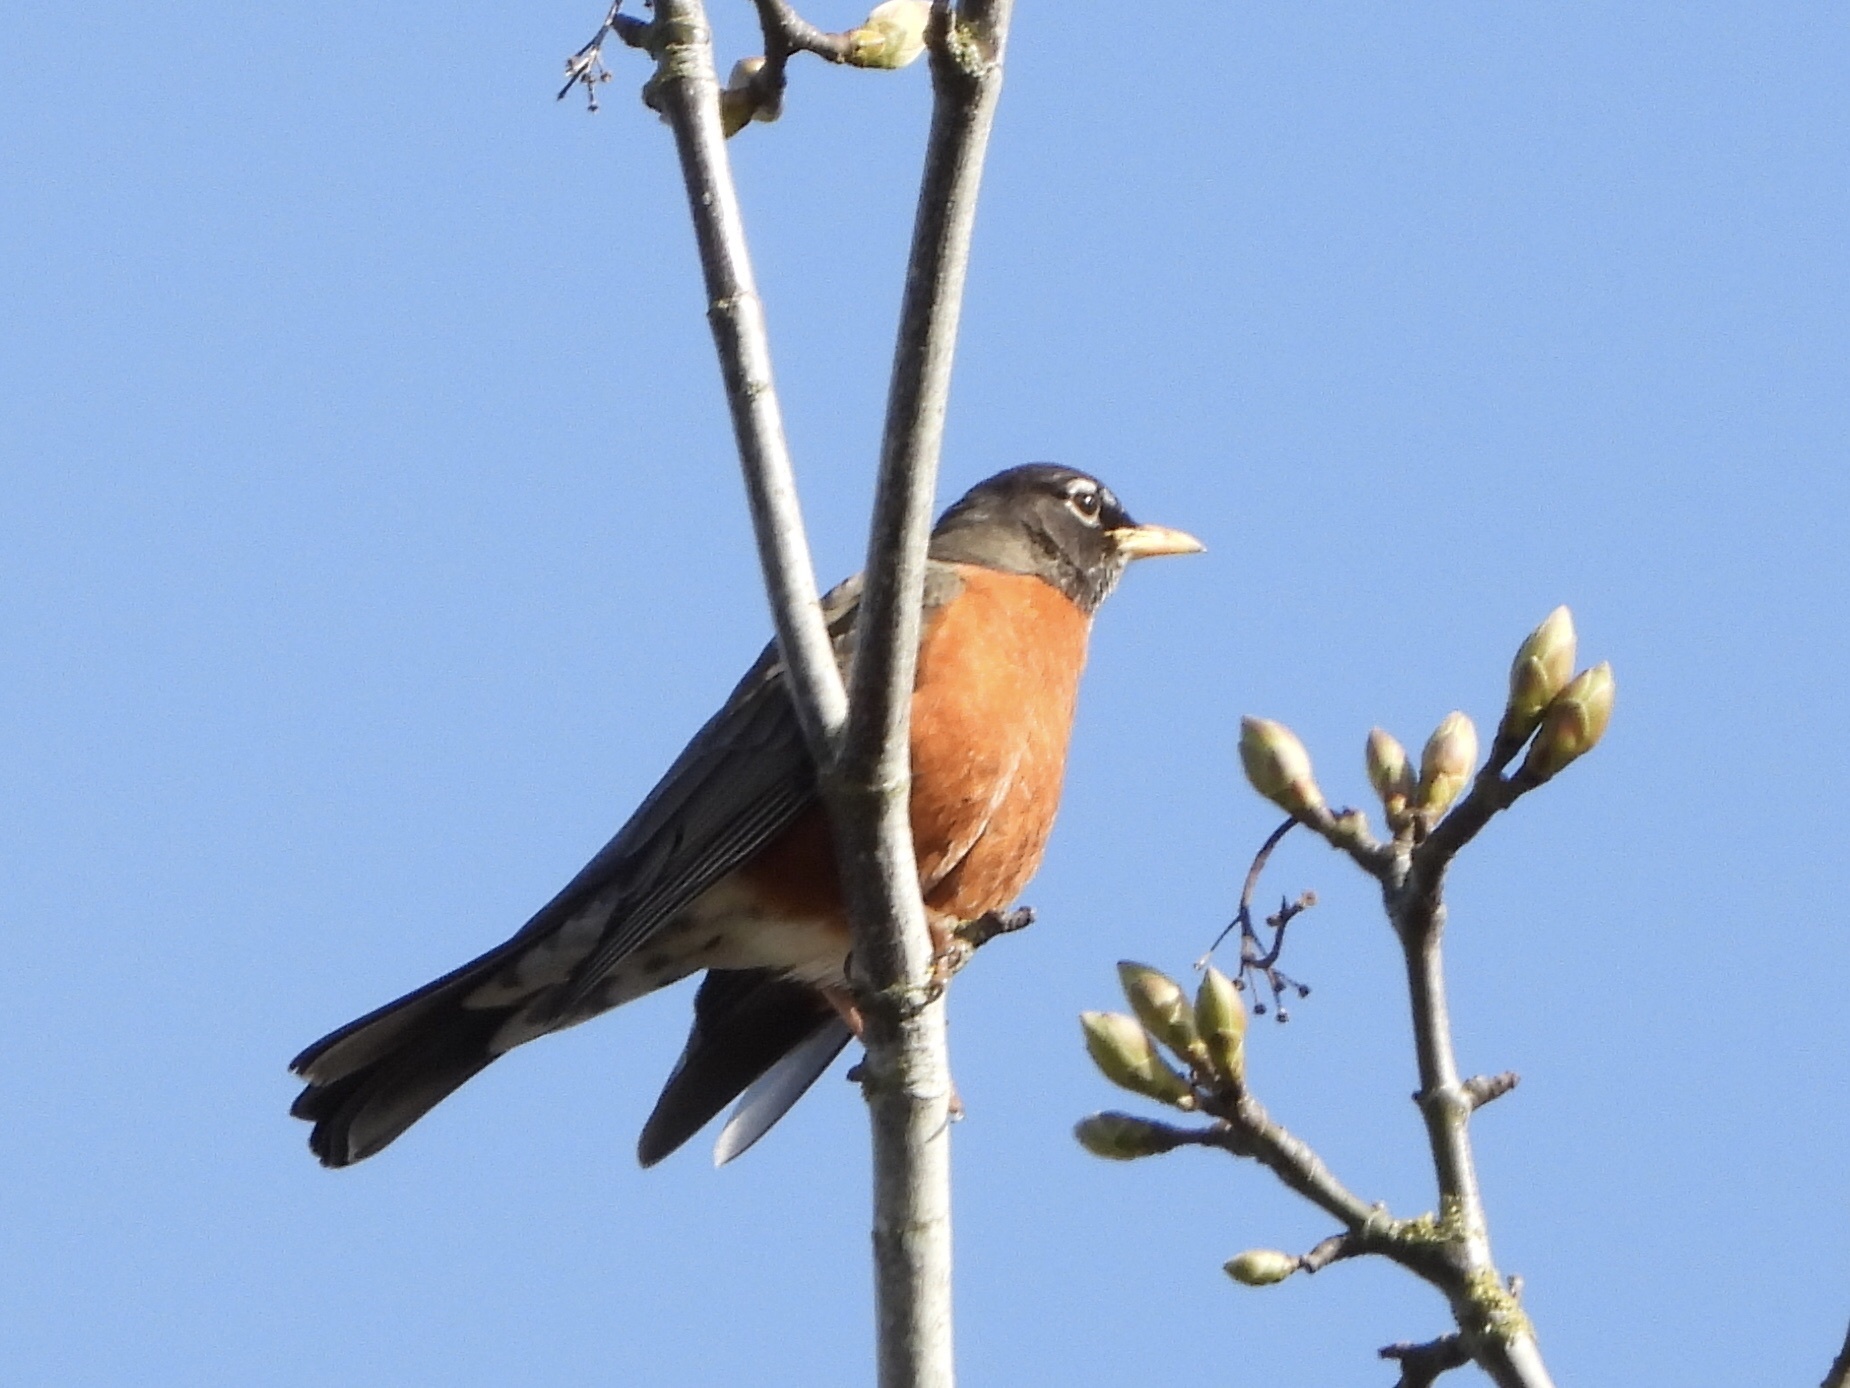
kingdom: Animalia
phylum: Chordata
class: Aves
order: Passeriformes
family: Turdidae
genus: Turdus
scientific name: Turdus migratorius
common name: American robin
